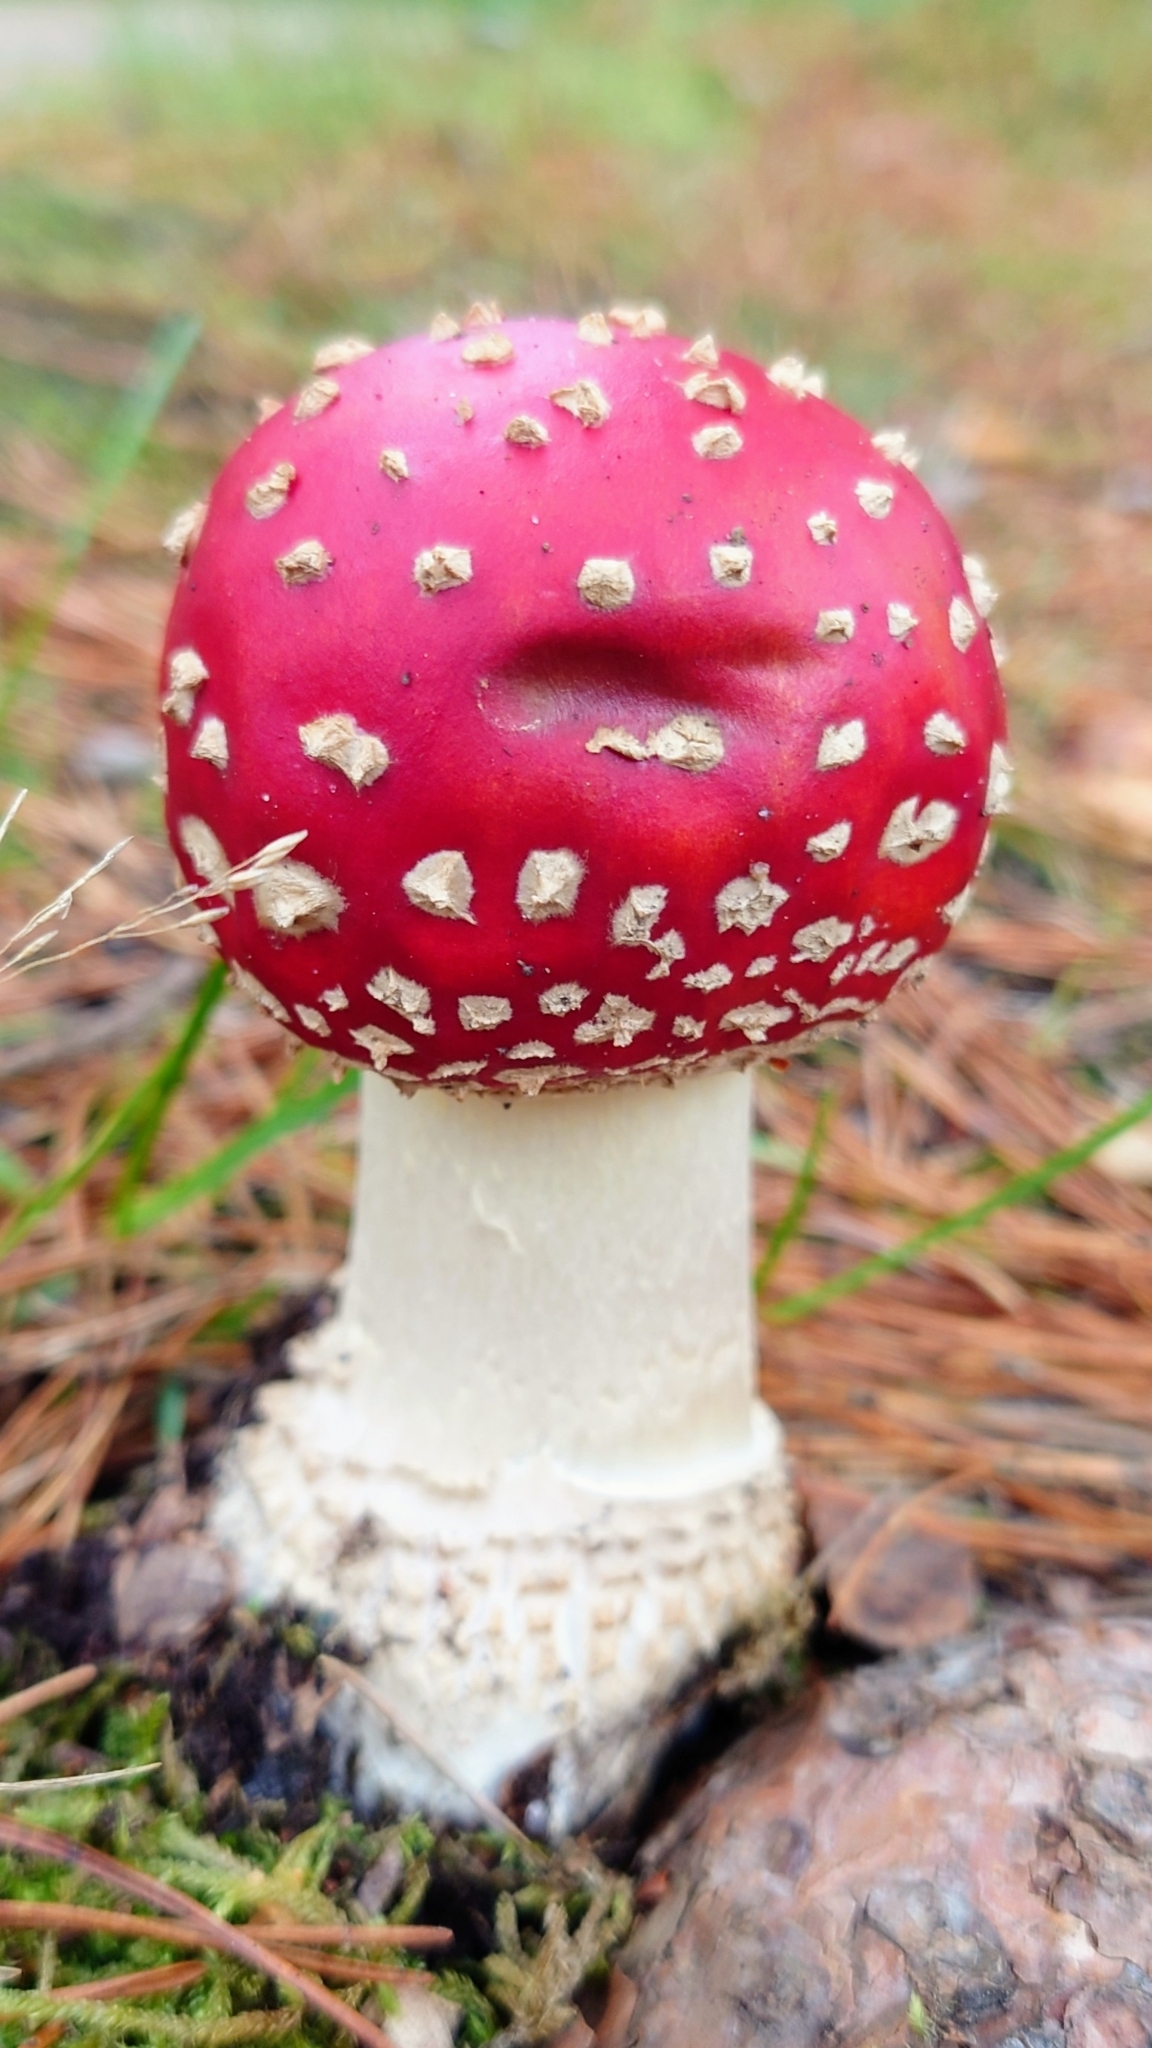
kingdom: Fungi
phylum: Basidiomycota
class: Agaricomycetes
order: Agaricales
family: Amanitaceae
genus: Amanita
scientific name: Amanita muscaria
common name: Fly agaric
